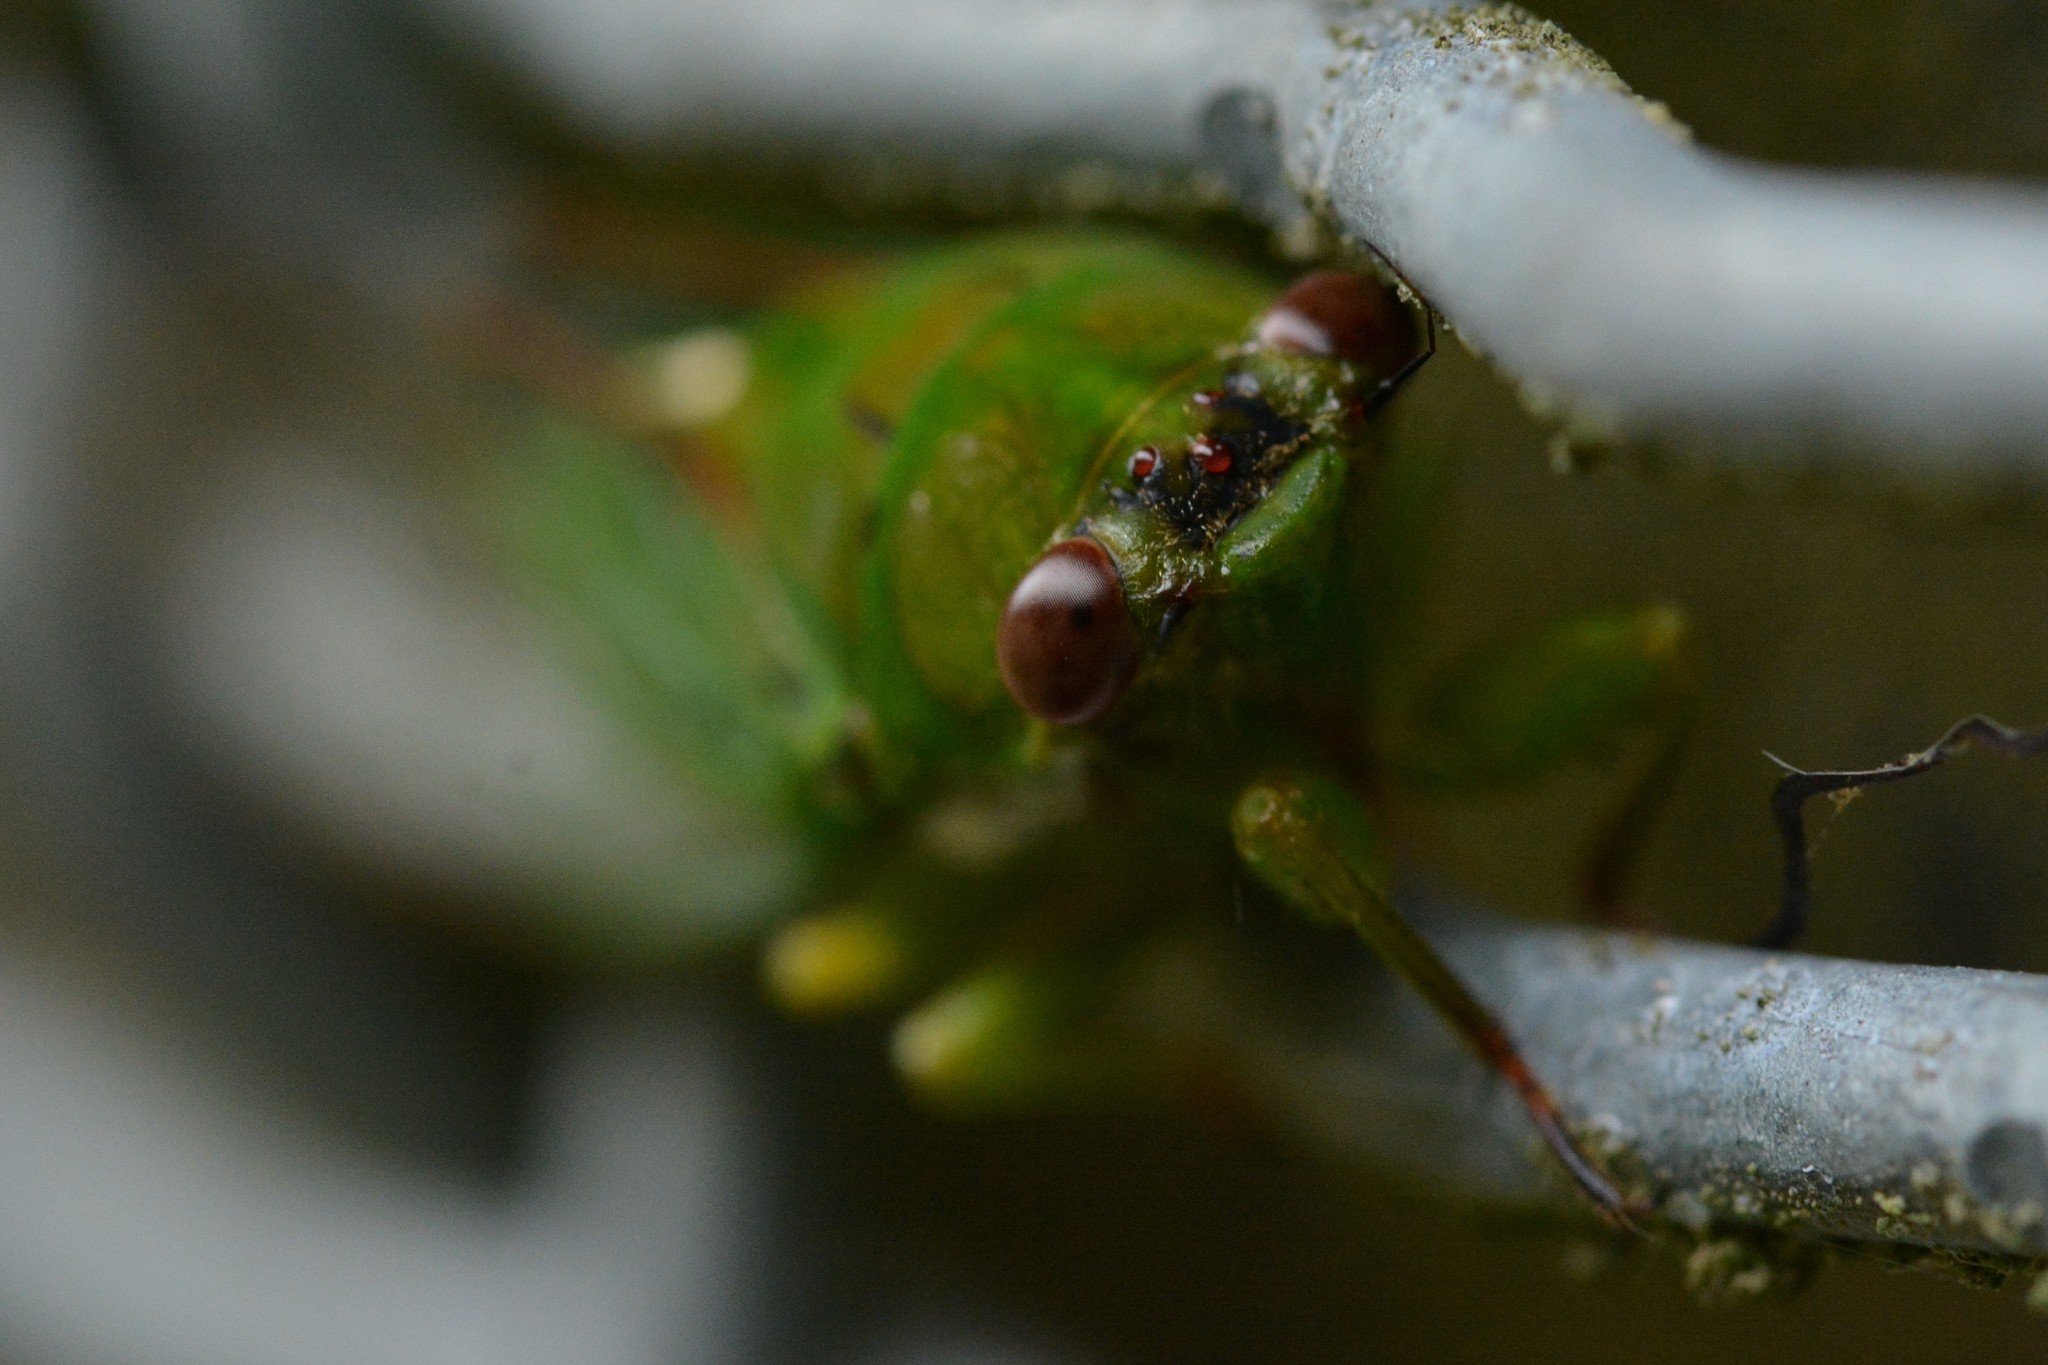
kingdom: Animalia
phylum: Arthropoda
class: Insecta
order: Hemiptera
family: Cicadidae
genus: Kikihia
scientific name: Kikihia ochrina
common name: April green cicada
